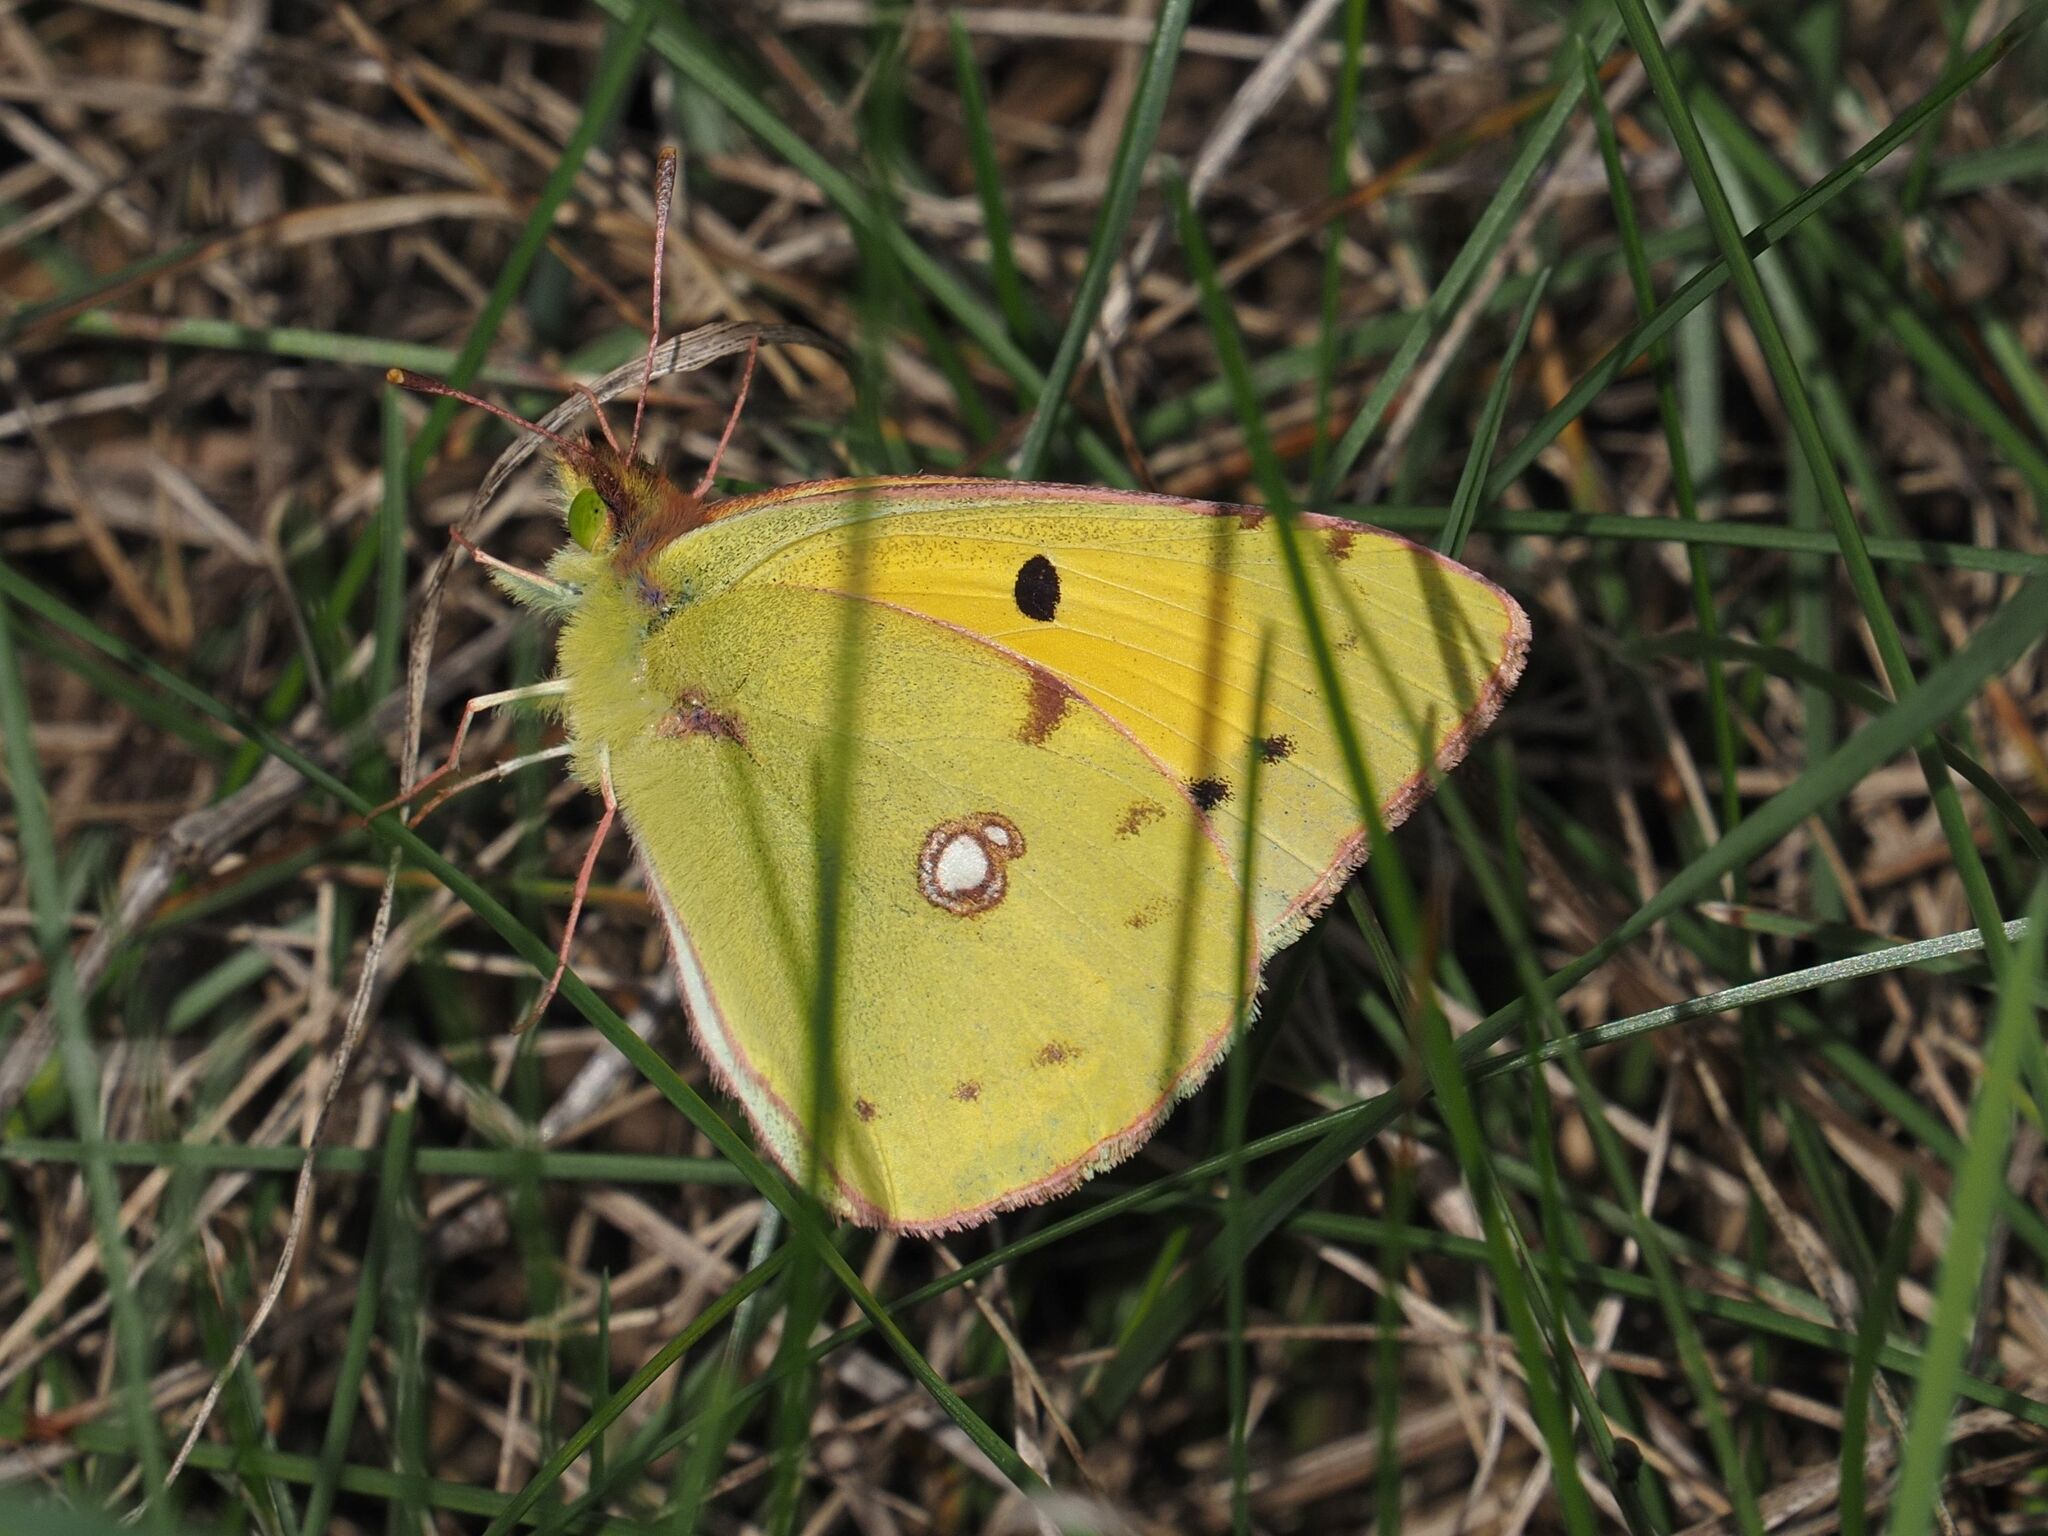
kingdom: Animalia
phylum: Arthropoda
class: Insecta
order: Lepidoptera
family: Pieridae
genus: Colias
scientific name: Colias croceus
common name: Clouded yellow
